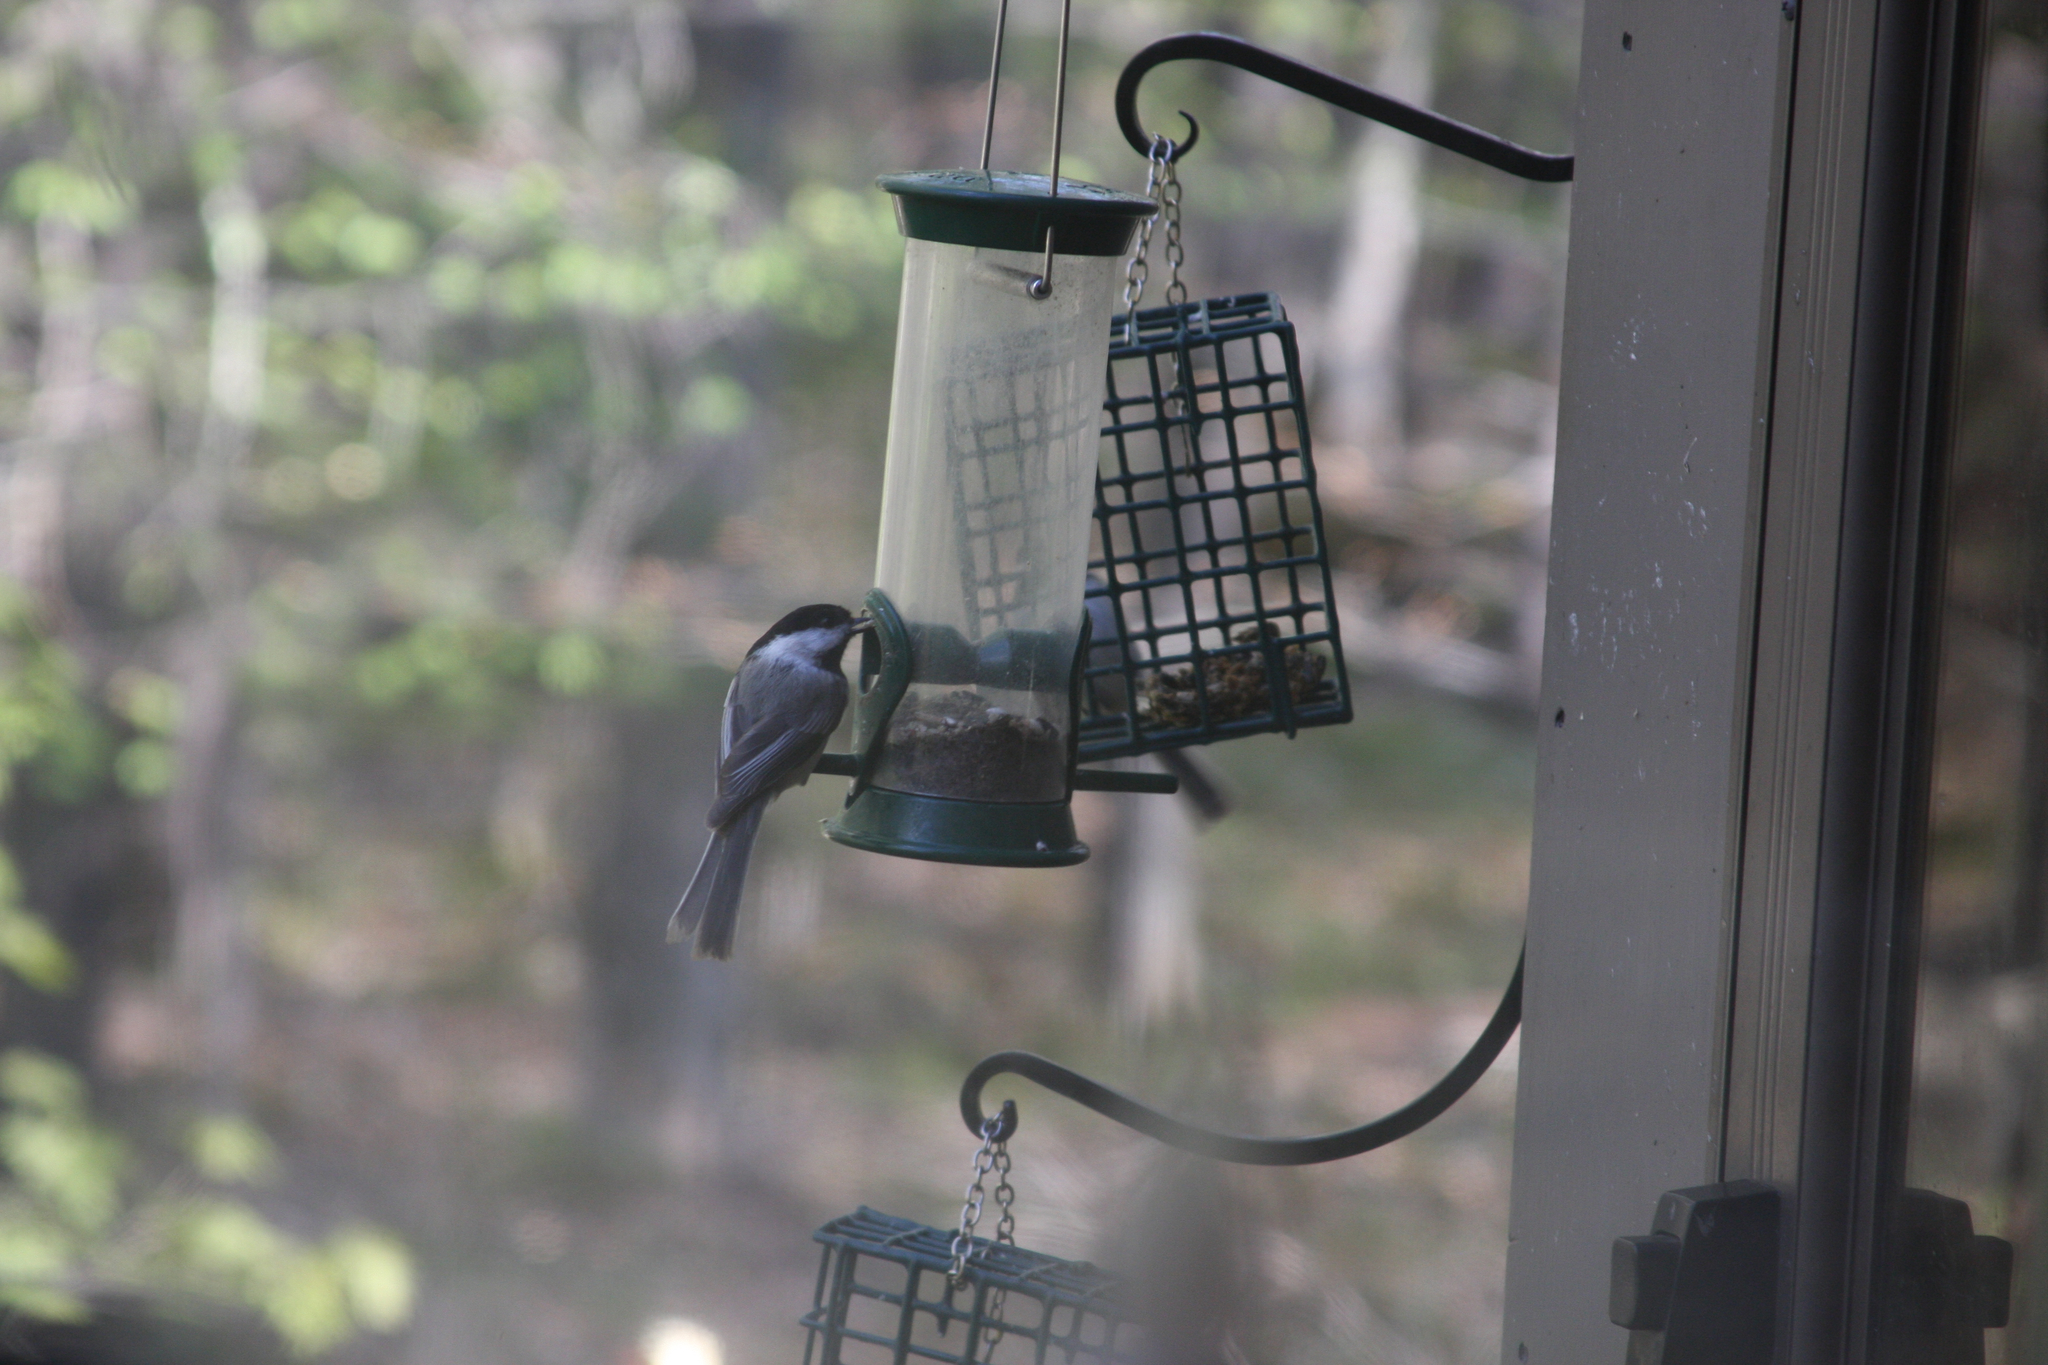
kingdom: Animalia
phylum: Chordata
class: Aves
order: Passeriformes
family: Paridae
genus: Poecile
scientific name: Poecile atricapillus
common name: Black-capped chickadee
